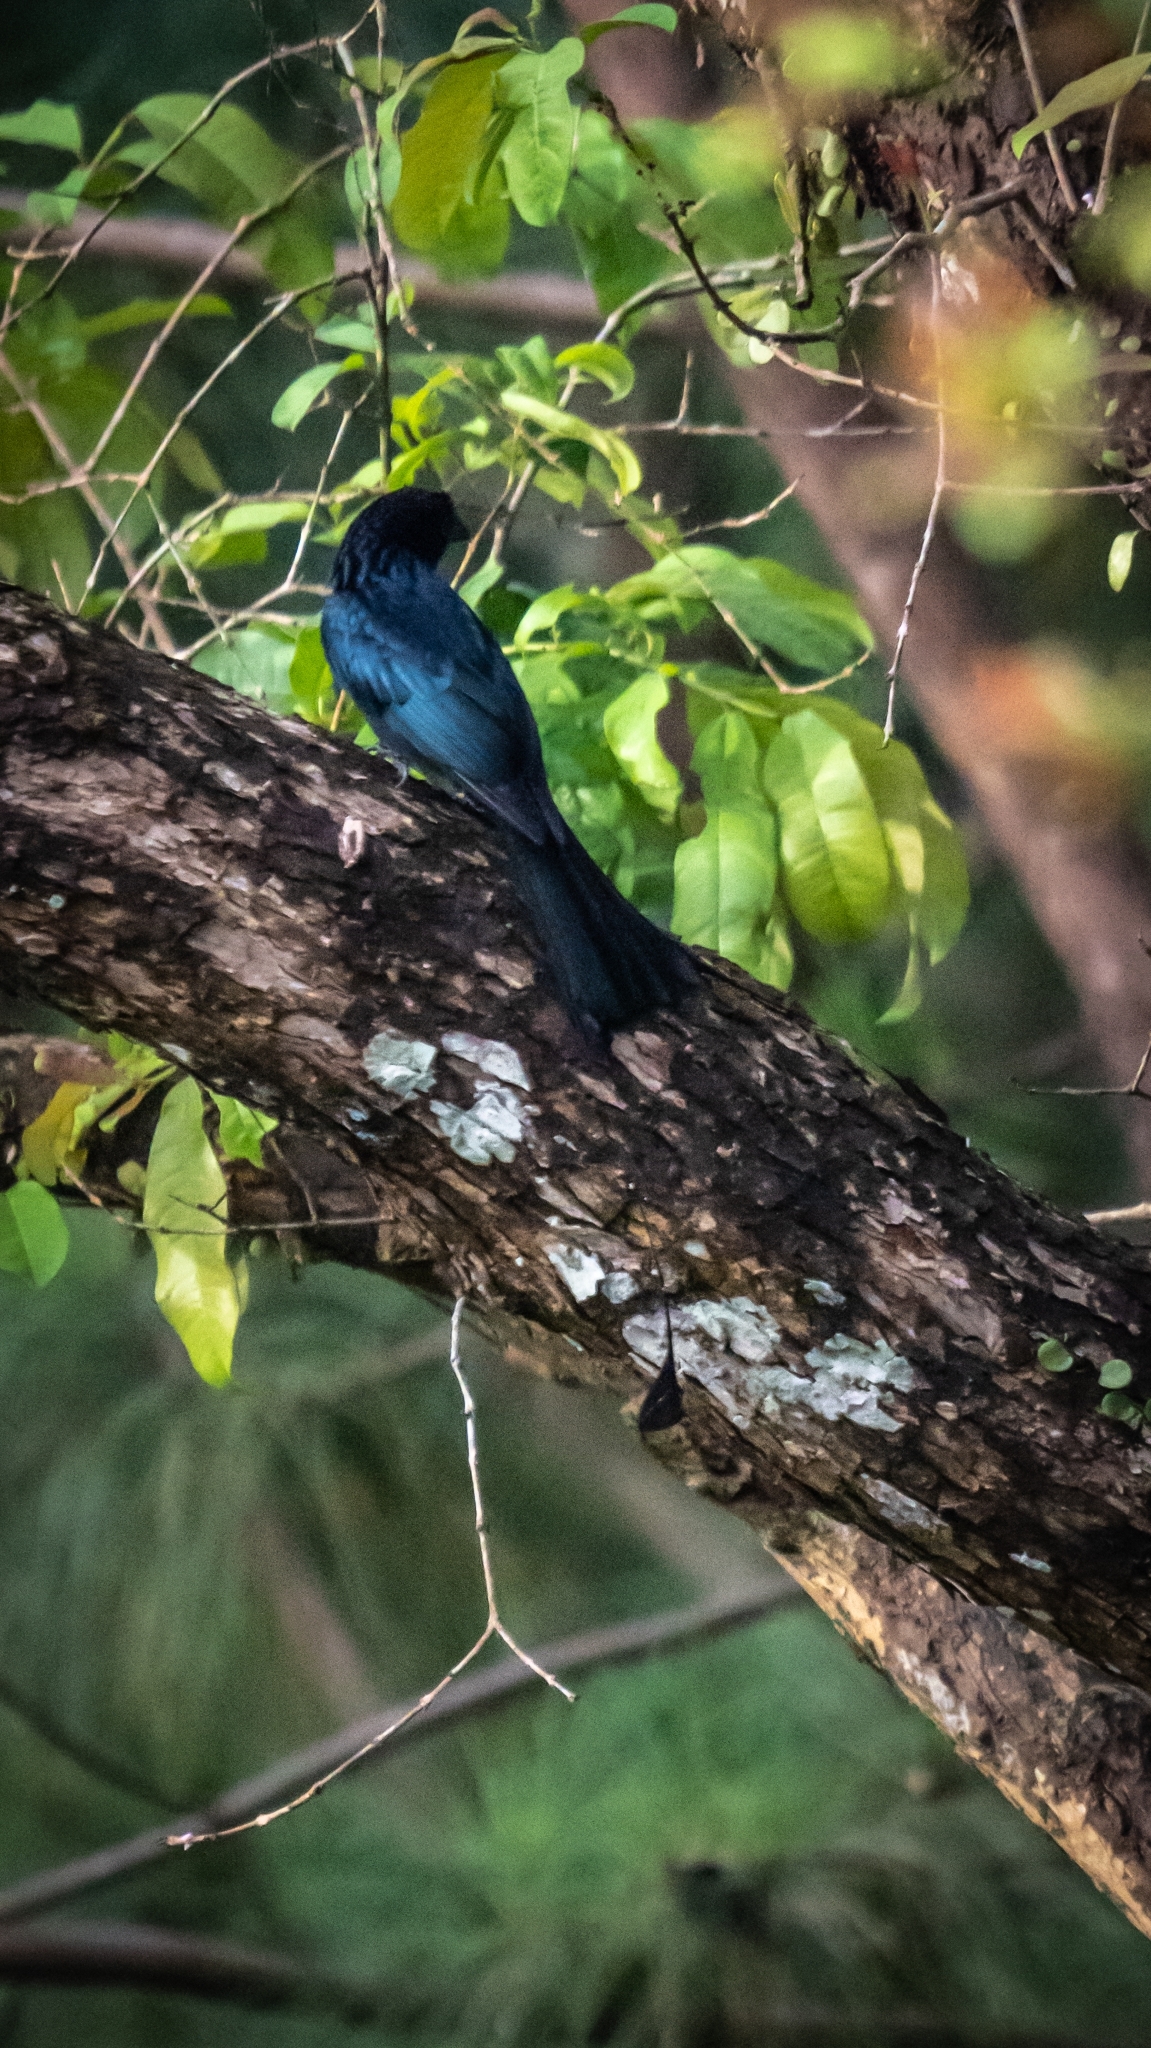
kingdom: Animalia
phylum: Chordata
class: Aves
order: Passeriformes
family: Dicruridae
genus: Dicrurus
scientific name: Dicrurus paradiseus
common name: Greater racket-tailed drongo
